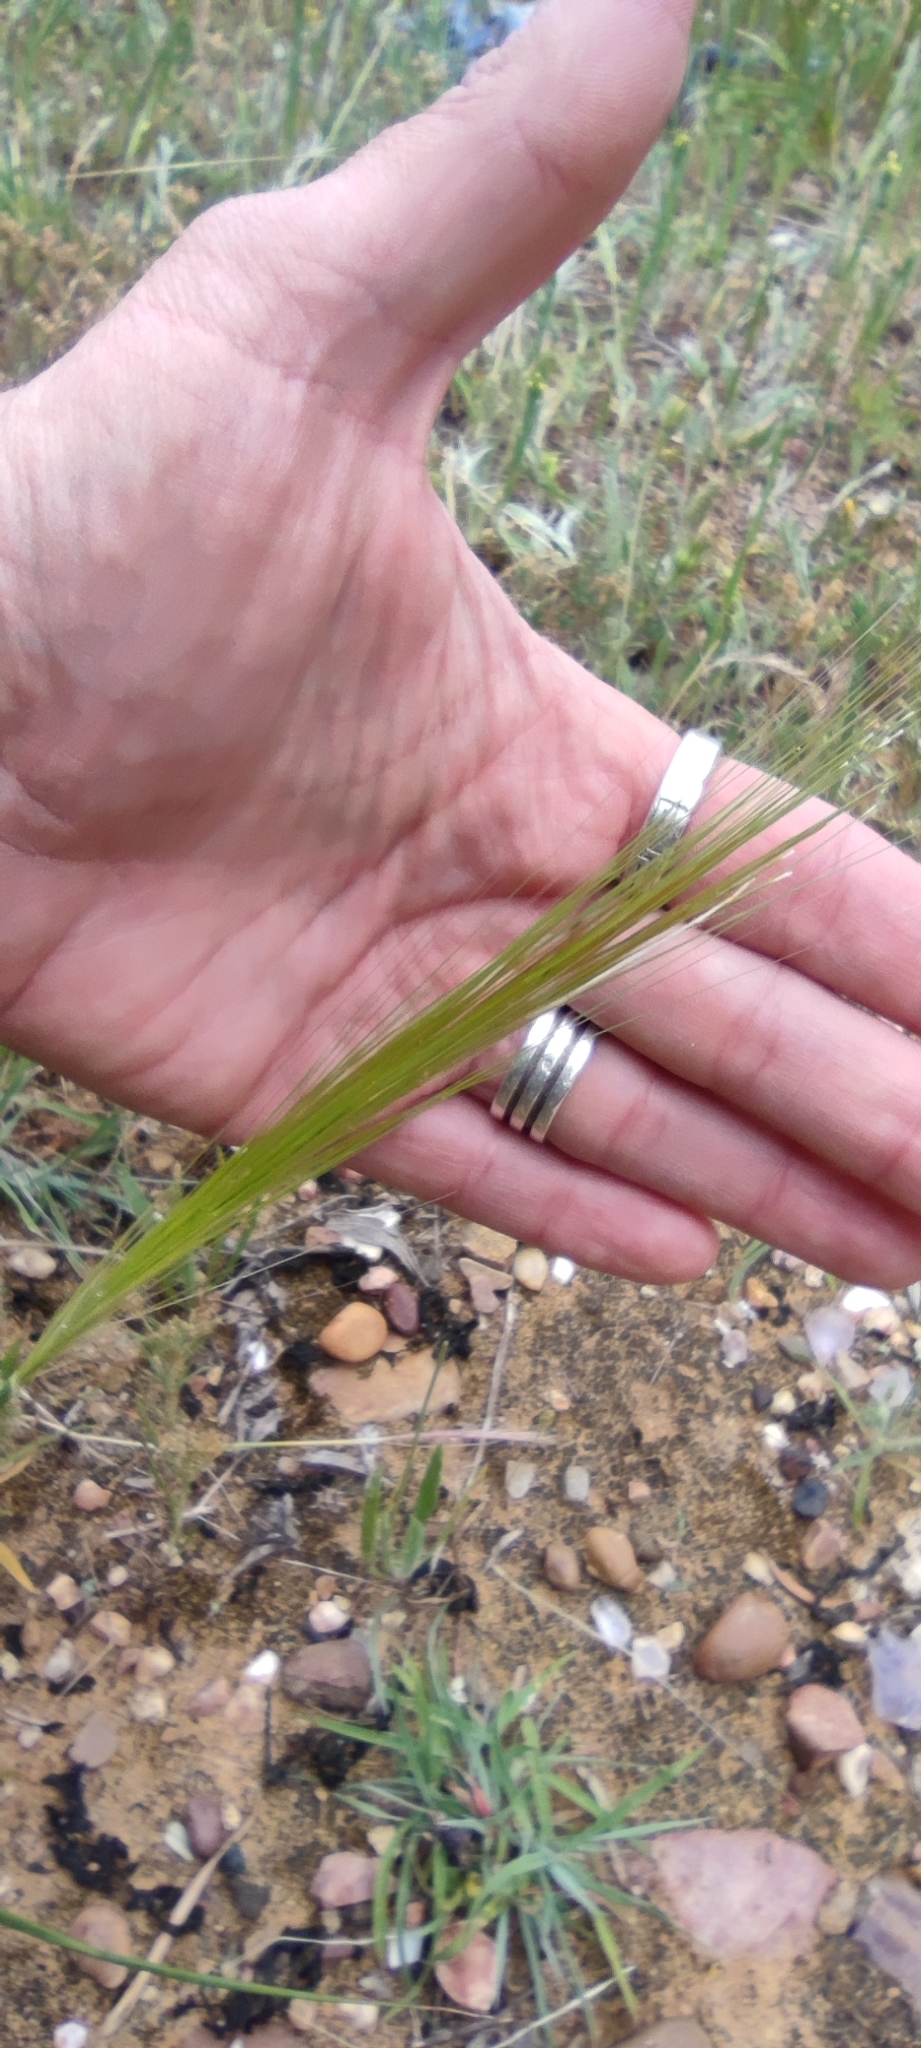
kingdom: Plantae
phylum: Tracheophyta
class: Liliopsida
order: Poales
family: Poaceae
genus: Stipellula
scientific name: Stipellula capensis
